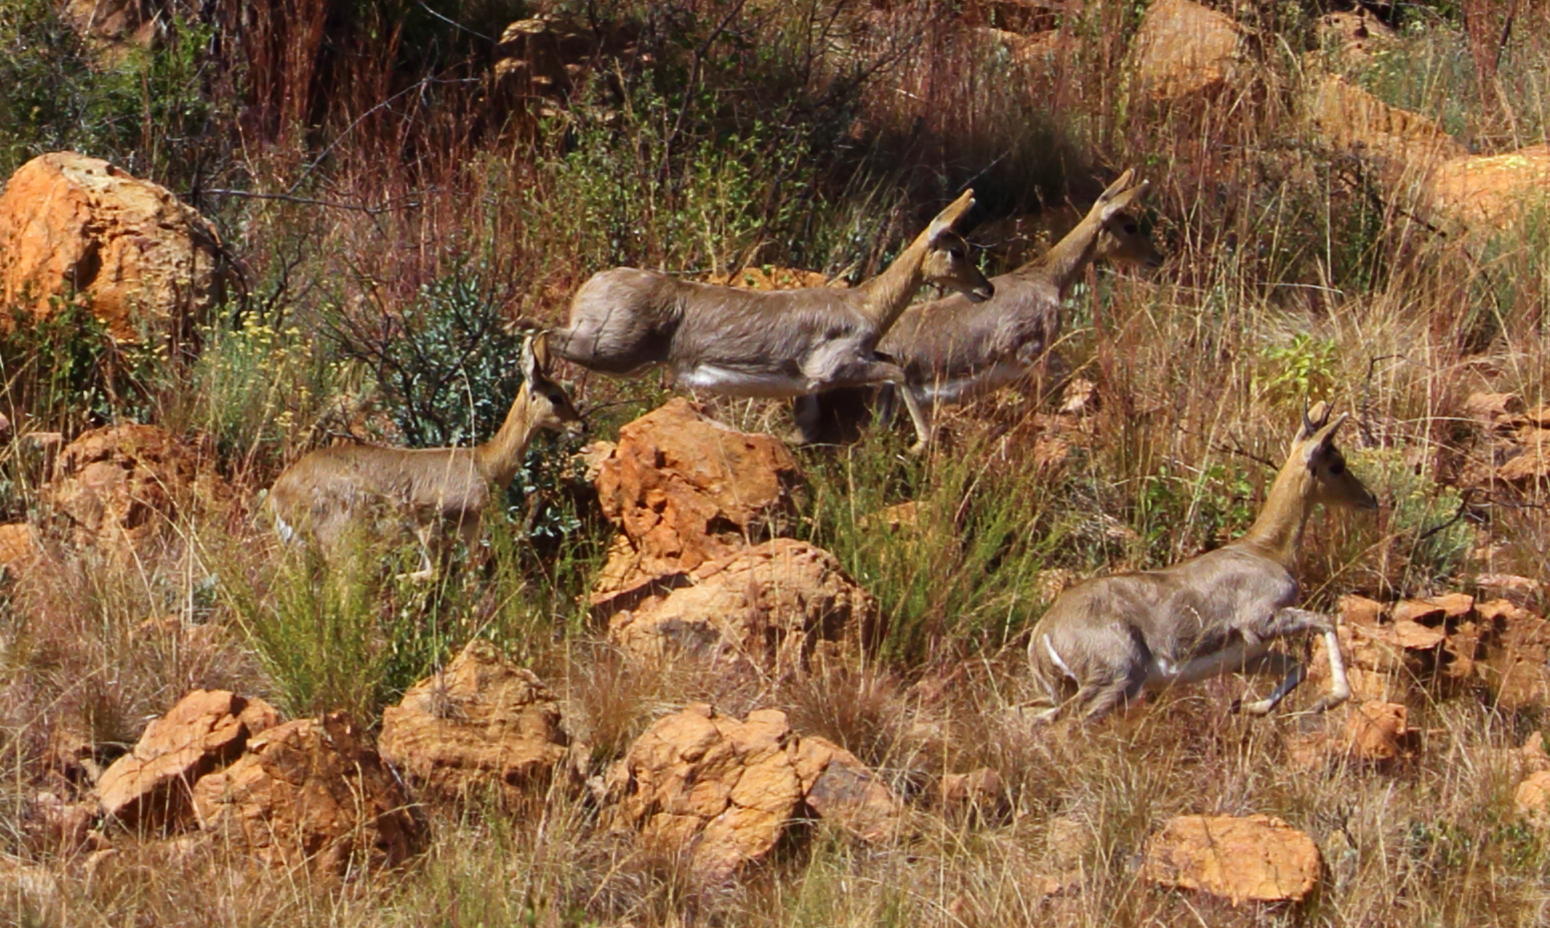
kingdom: Animalia
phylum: Chordata
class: Mammalia
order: Artiodactyla
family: Bovidae
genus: Redunca
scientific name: Redunca fulvorufula
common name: Mountain reedbuck
